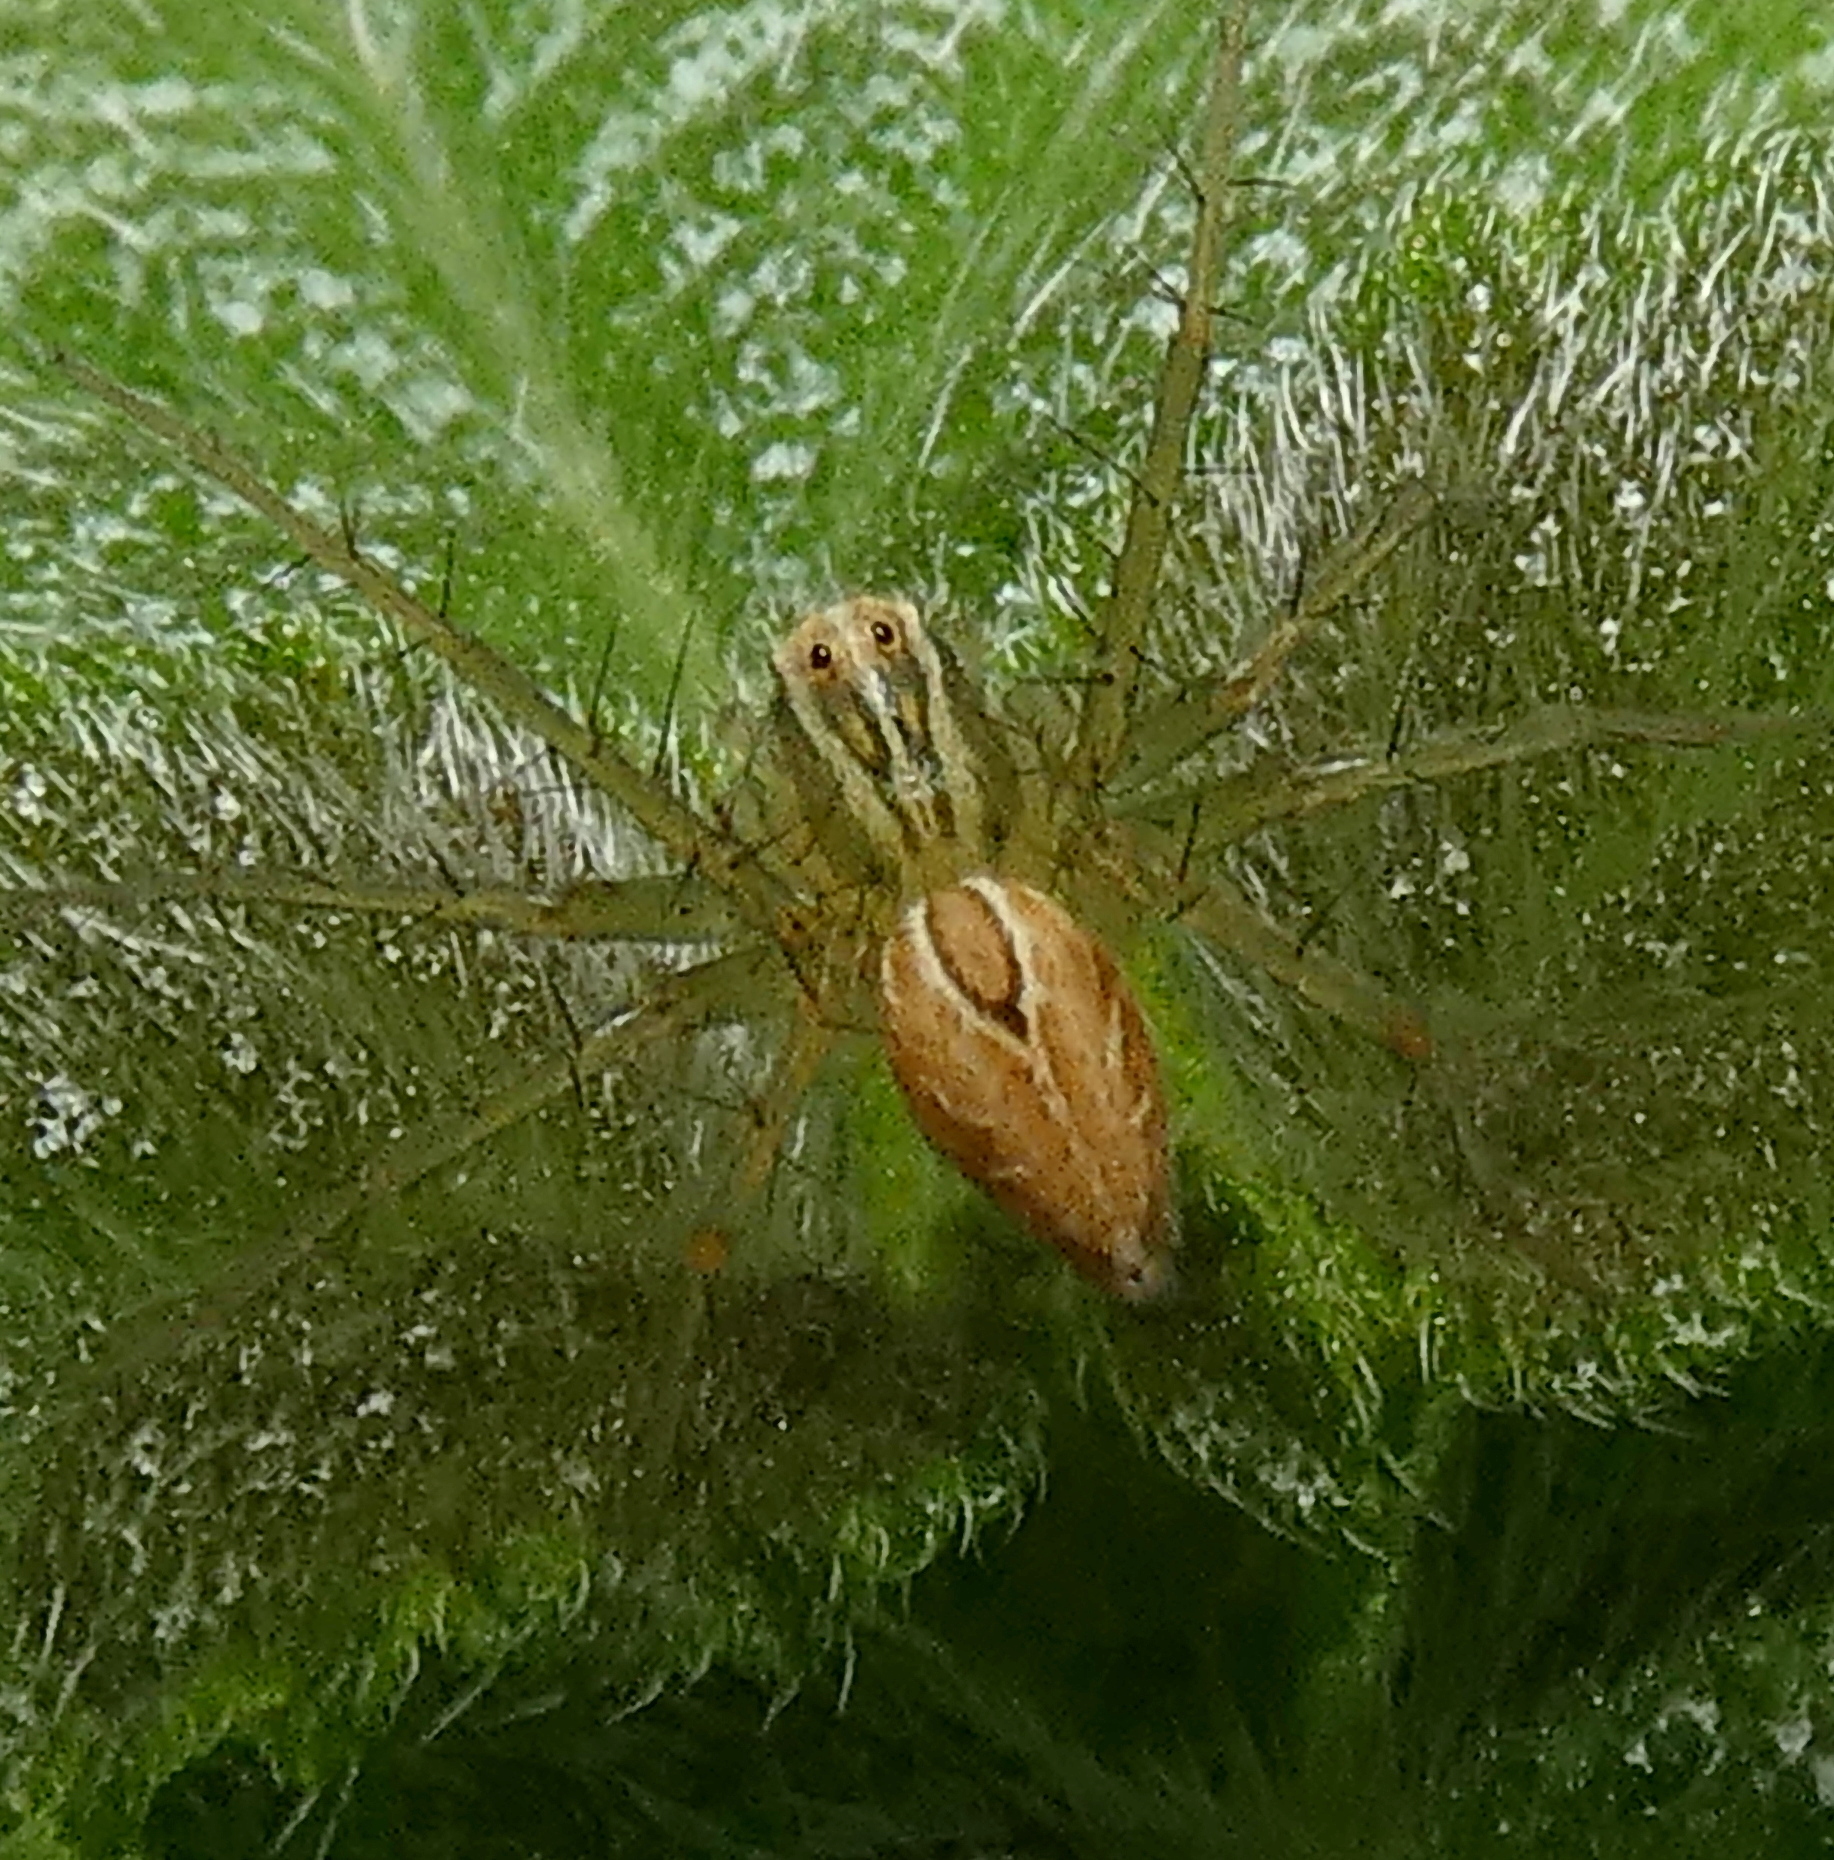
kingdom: Animalia
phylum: Arthropoda
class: Arachnida
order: Araneae
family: Oxyopidae
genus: Oxyopes
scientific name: Oxyopes salticus
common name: Lynx spiders
